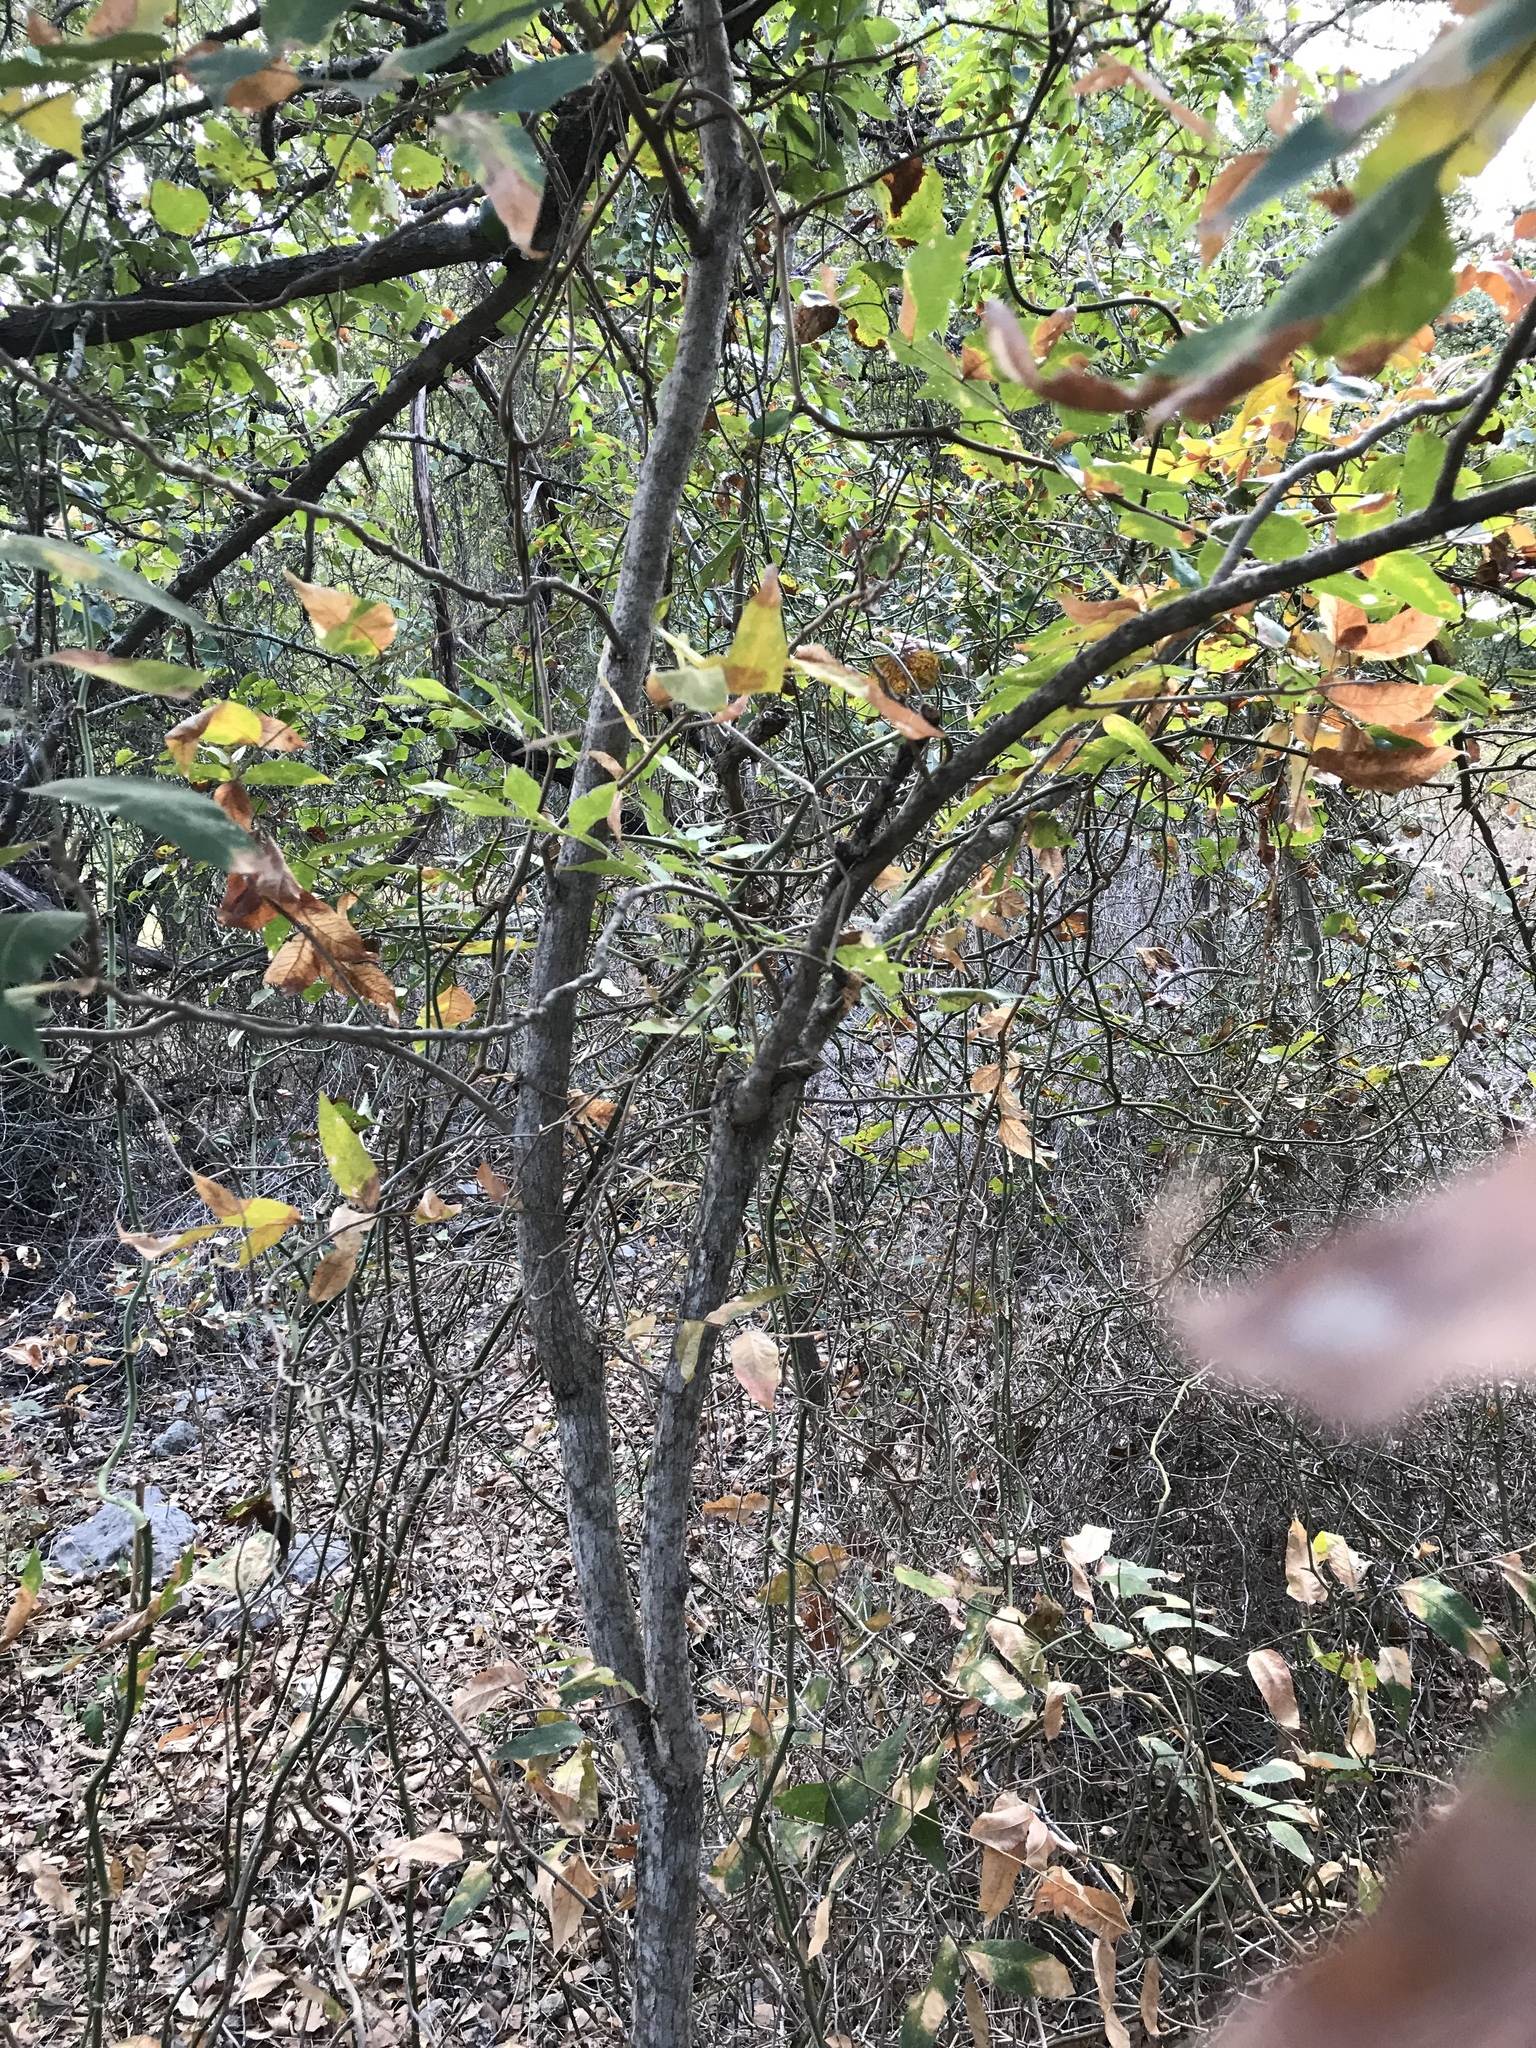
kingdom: Plantae
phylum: Tracheophyta
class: Magnoliopsida
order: Sapindales
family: Sapindaceae
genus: Sapindus
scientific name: Sapindus drummondii
